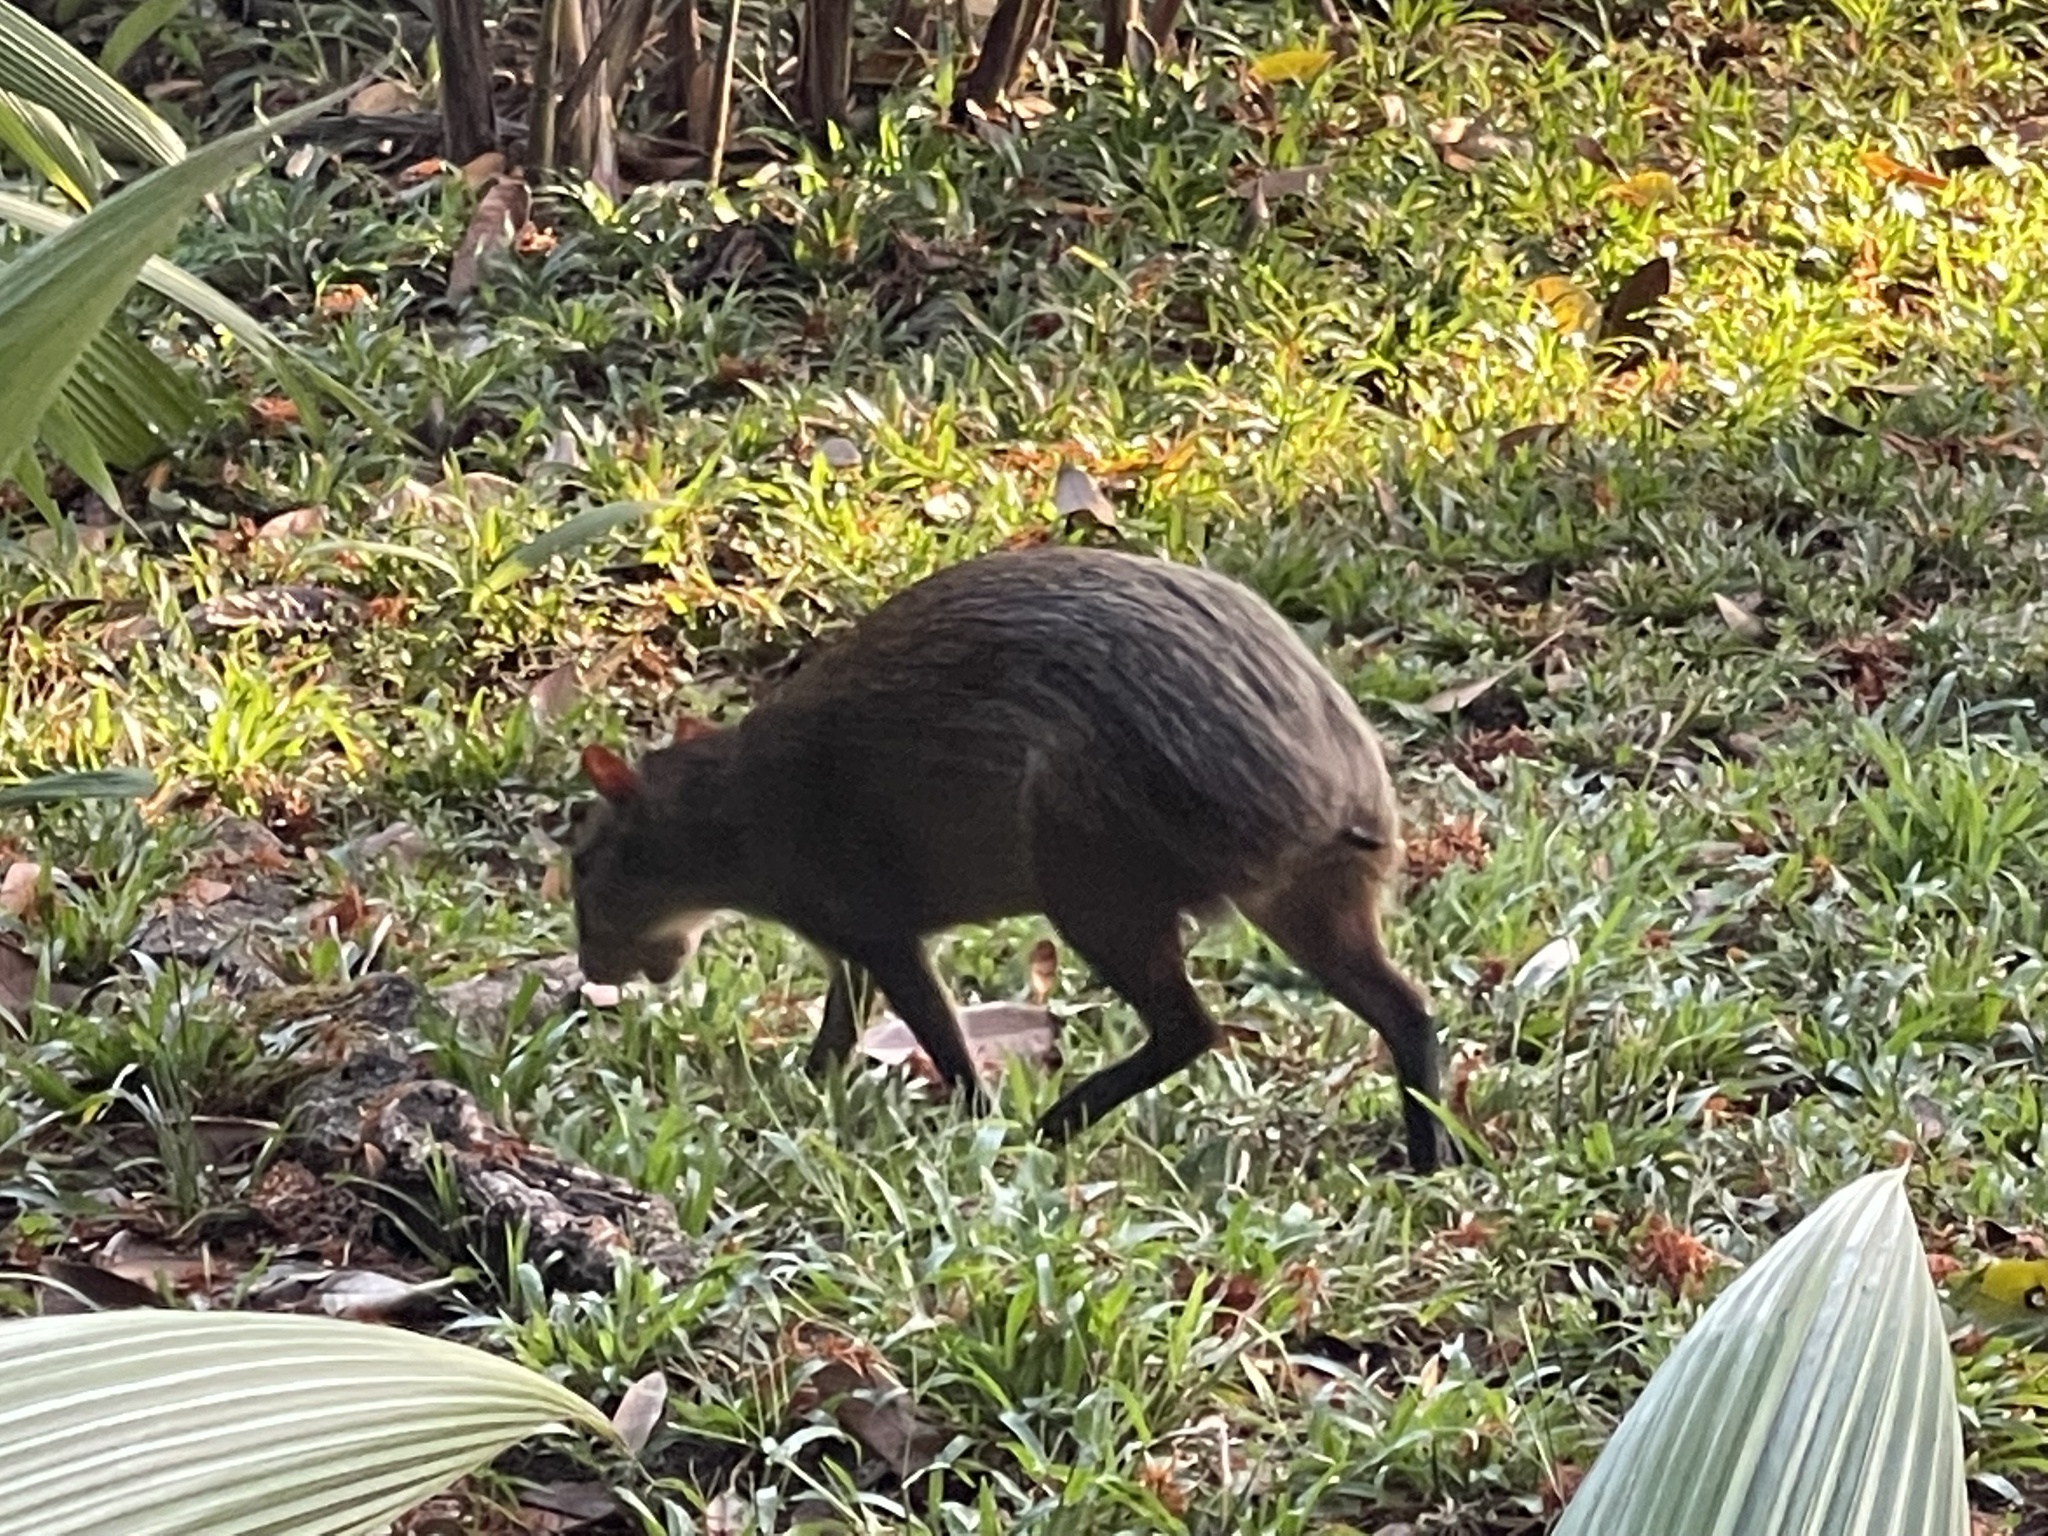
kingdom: Animalia
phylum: Chordata
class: Mammalia
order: Rodentia
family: Dasyproctidae
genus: Dasyprocta
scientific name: Dasyprocta punctata
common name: Central american agouti
